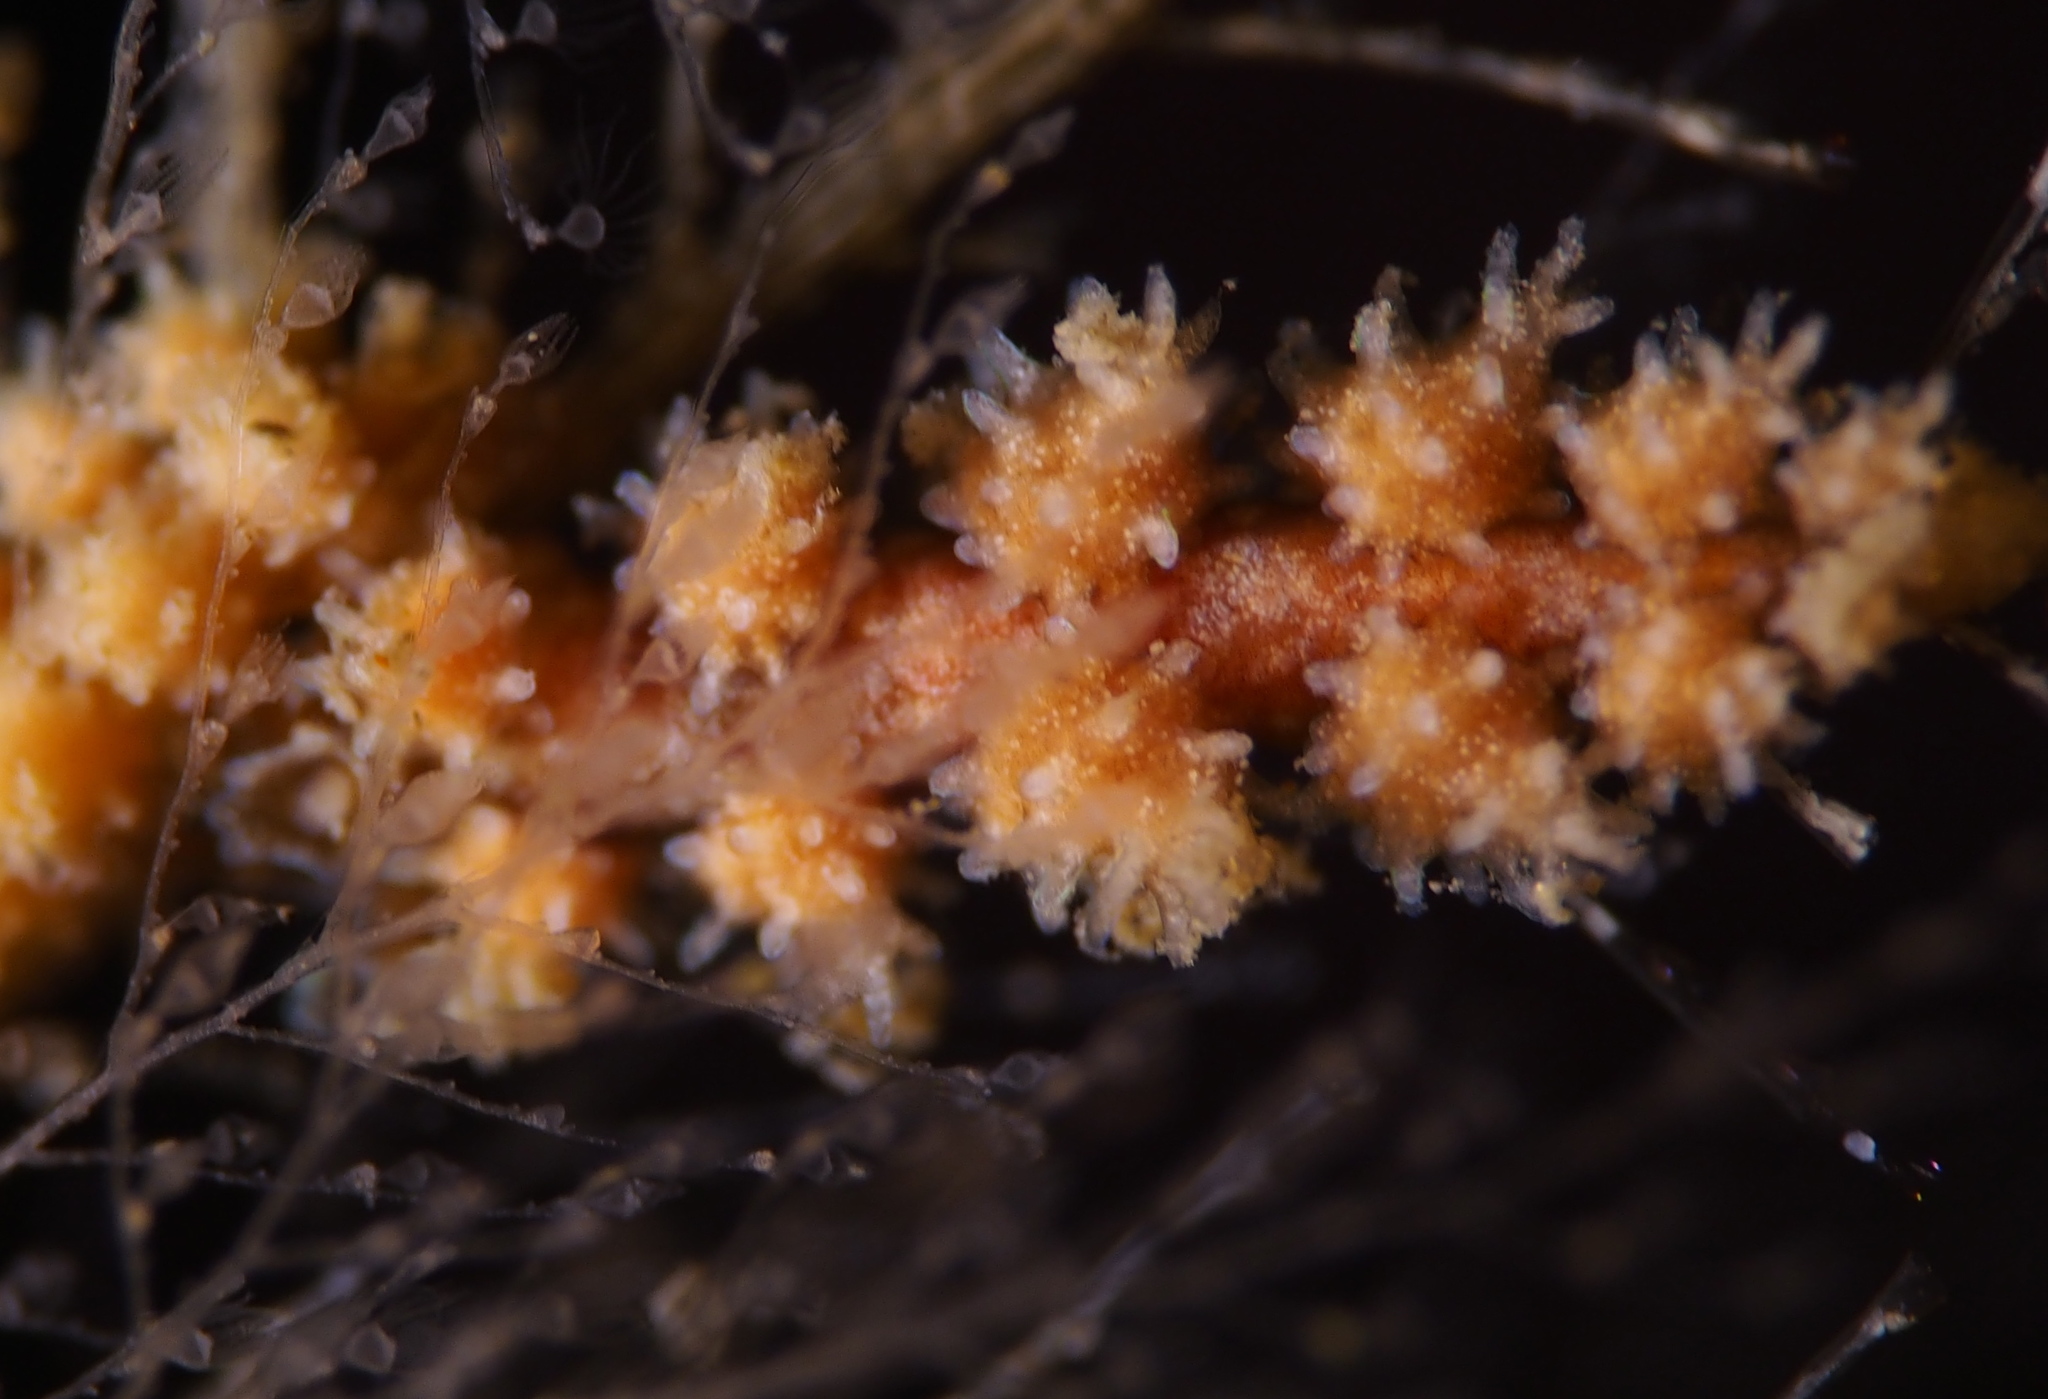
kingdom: Animalia
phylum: Mollusca
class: Gastropoda
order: Nudibranchia
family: Dotidae
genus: Doto
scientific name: Doto hystrix
